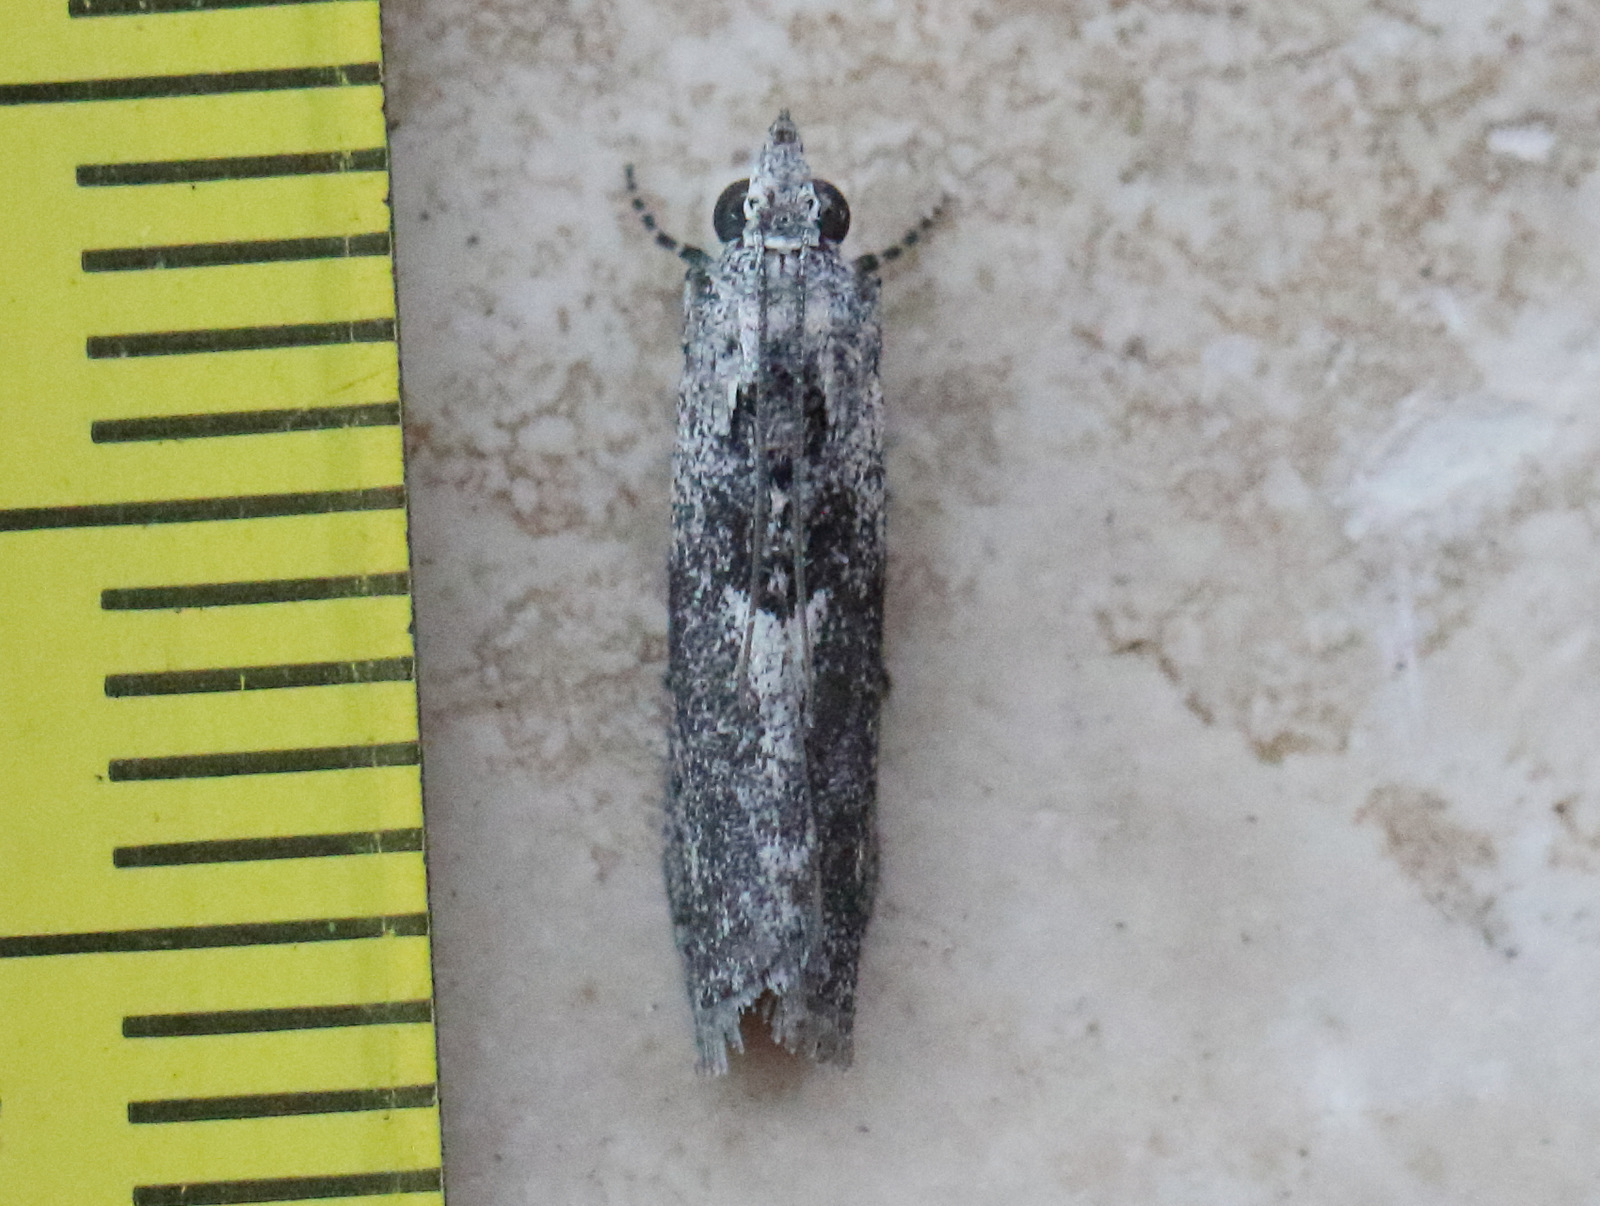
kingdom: Animalia
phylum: Arthropoda
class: Insecta
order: Lepidoptera
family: Pyralidae
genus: Sciota
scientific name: Sciota
